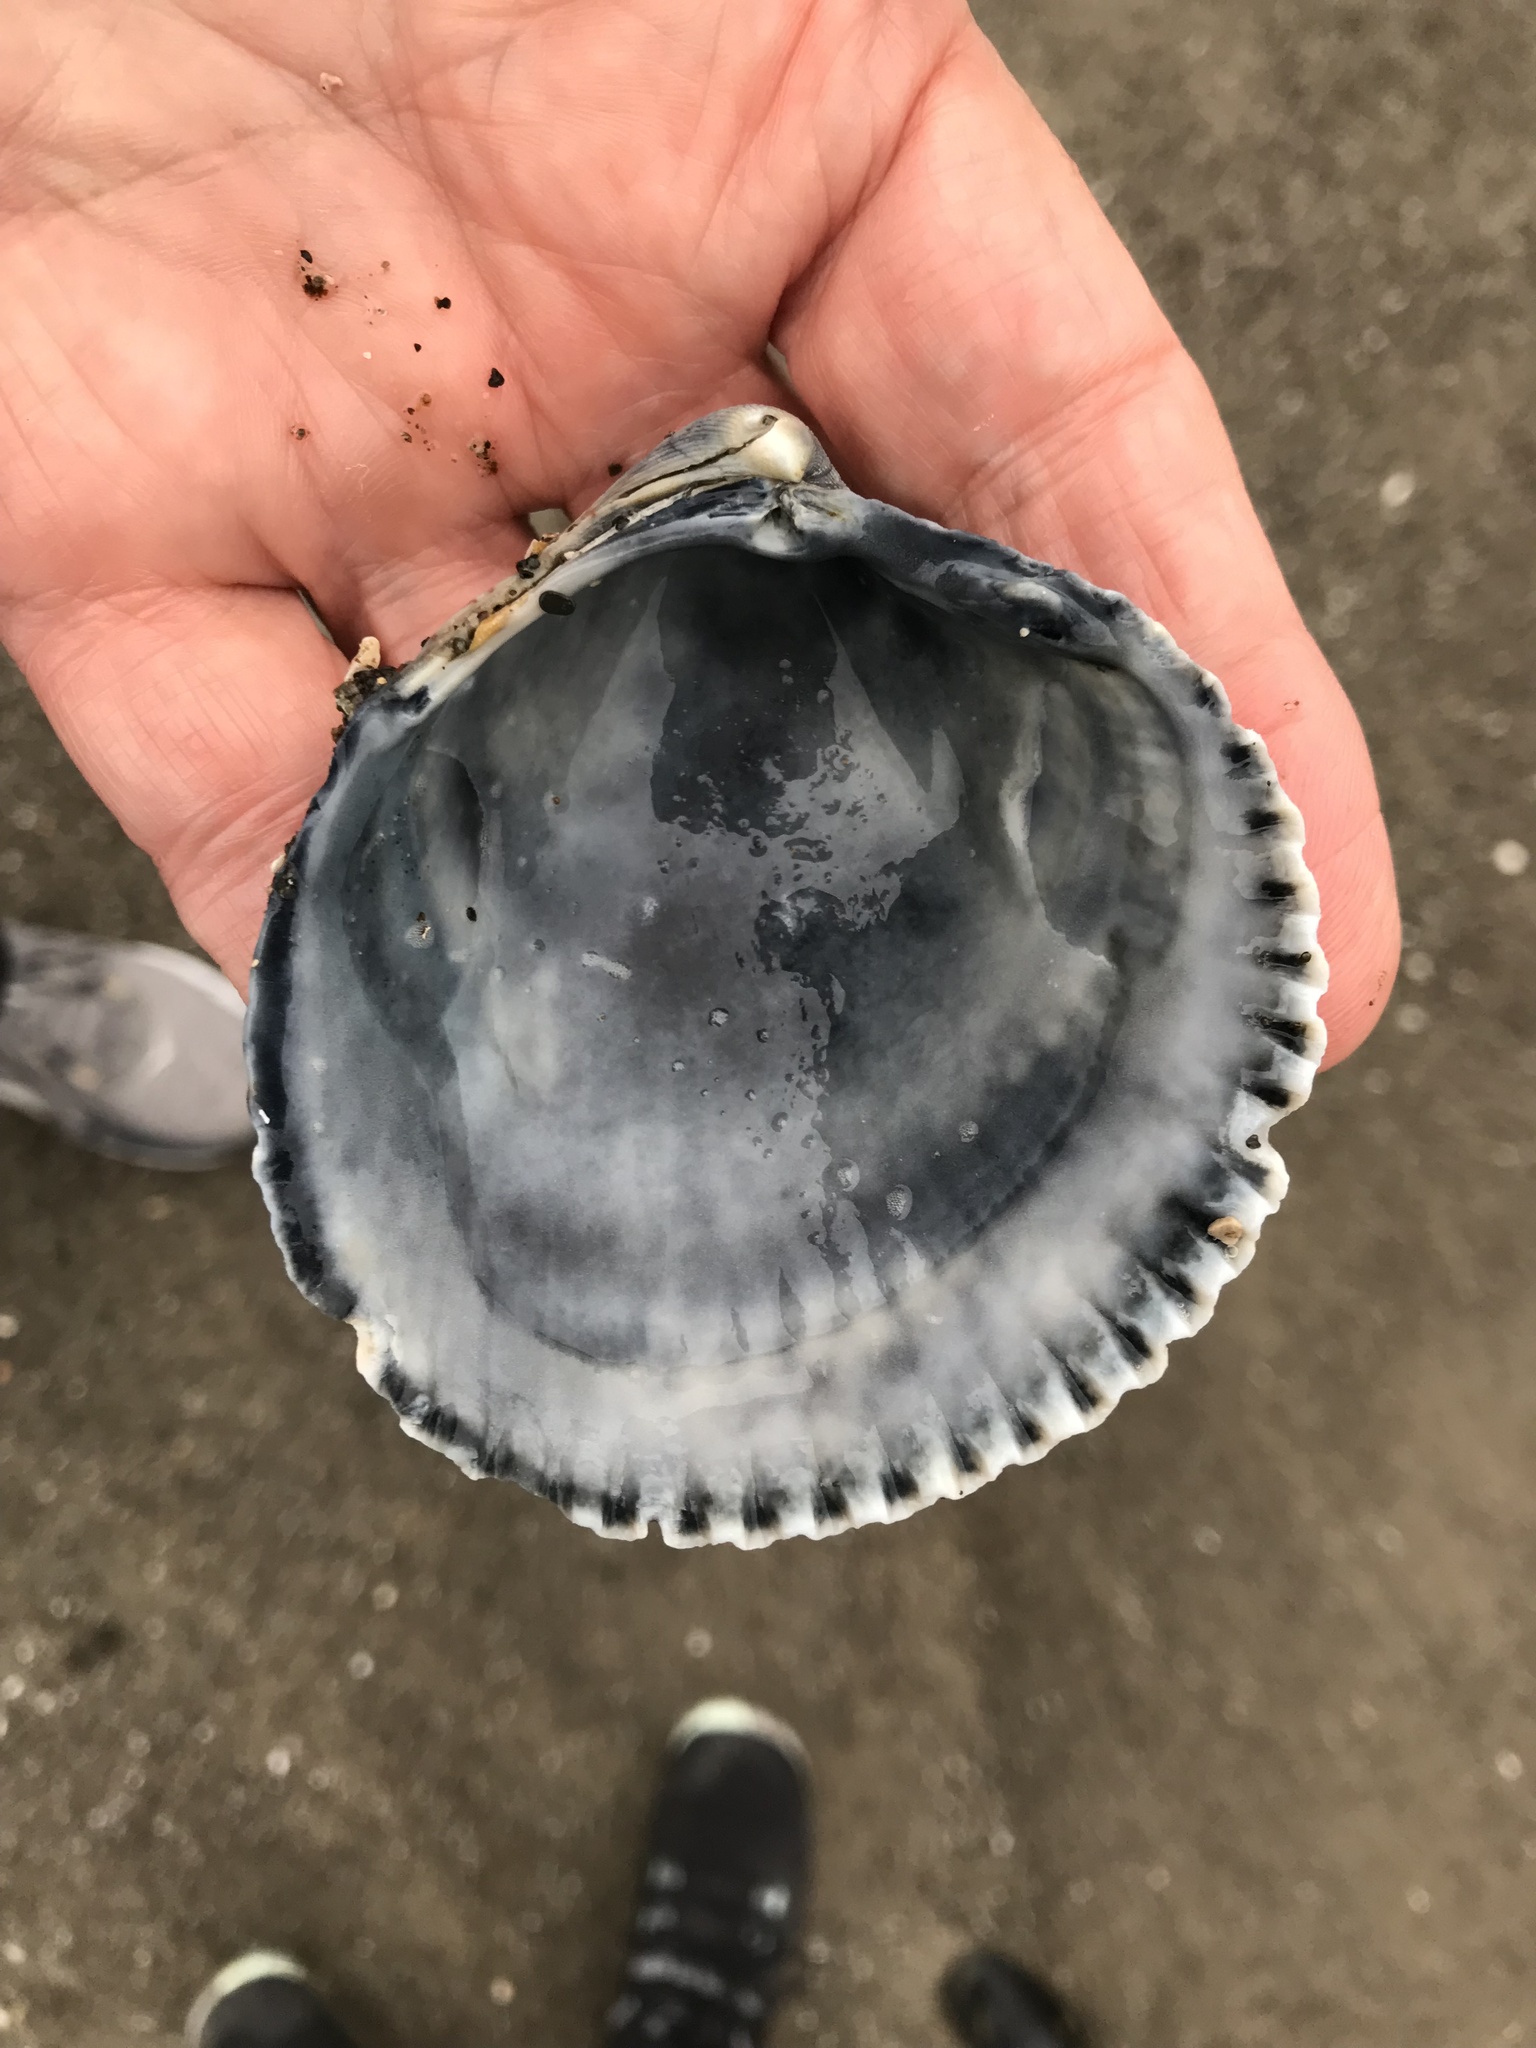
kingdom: Animalia
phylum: Mollusca
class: Bivalvia
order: Cardiida
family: Cardiidae
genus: Clinocardium
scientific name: Clinocardium nuttallii
